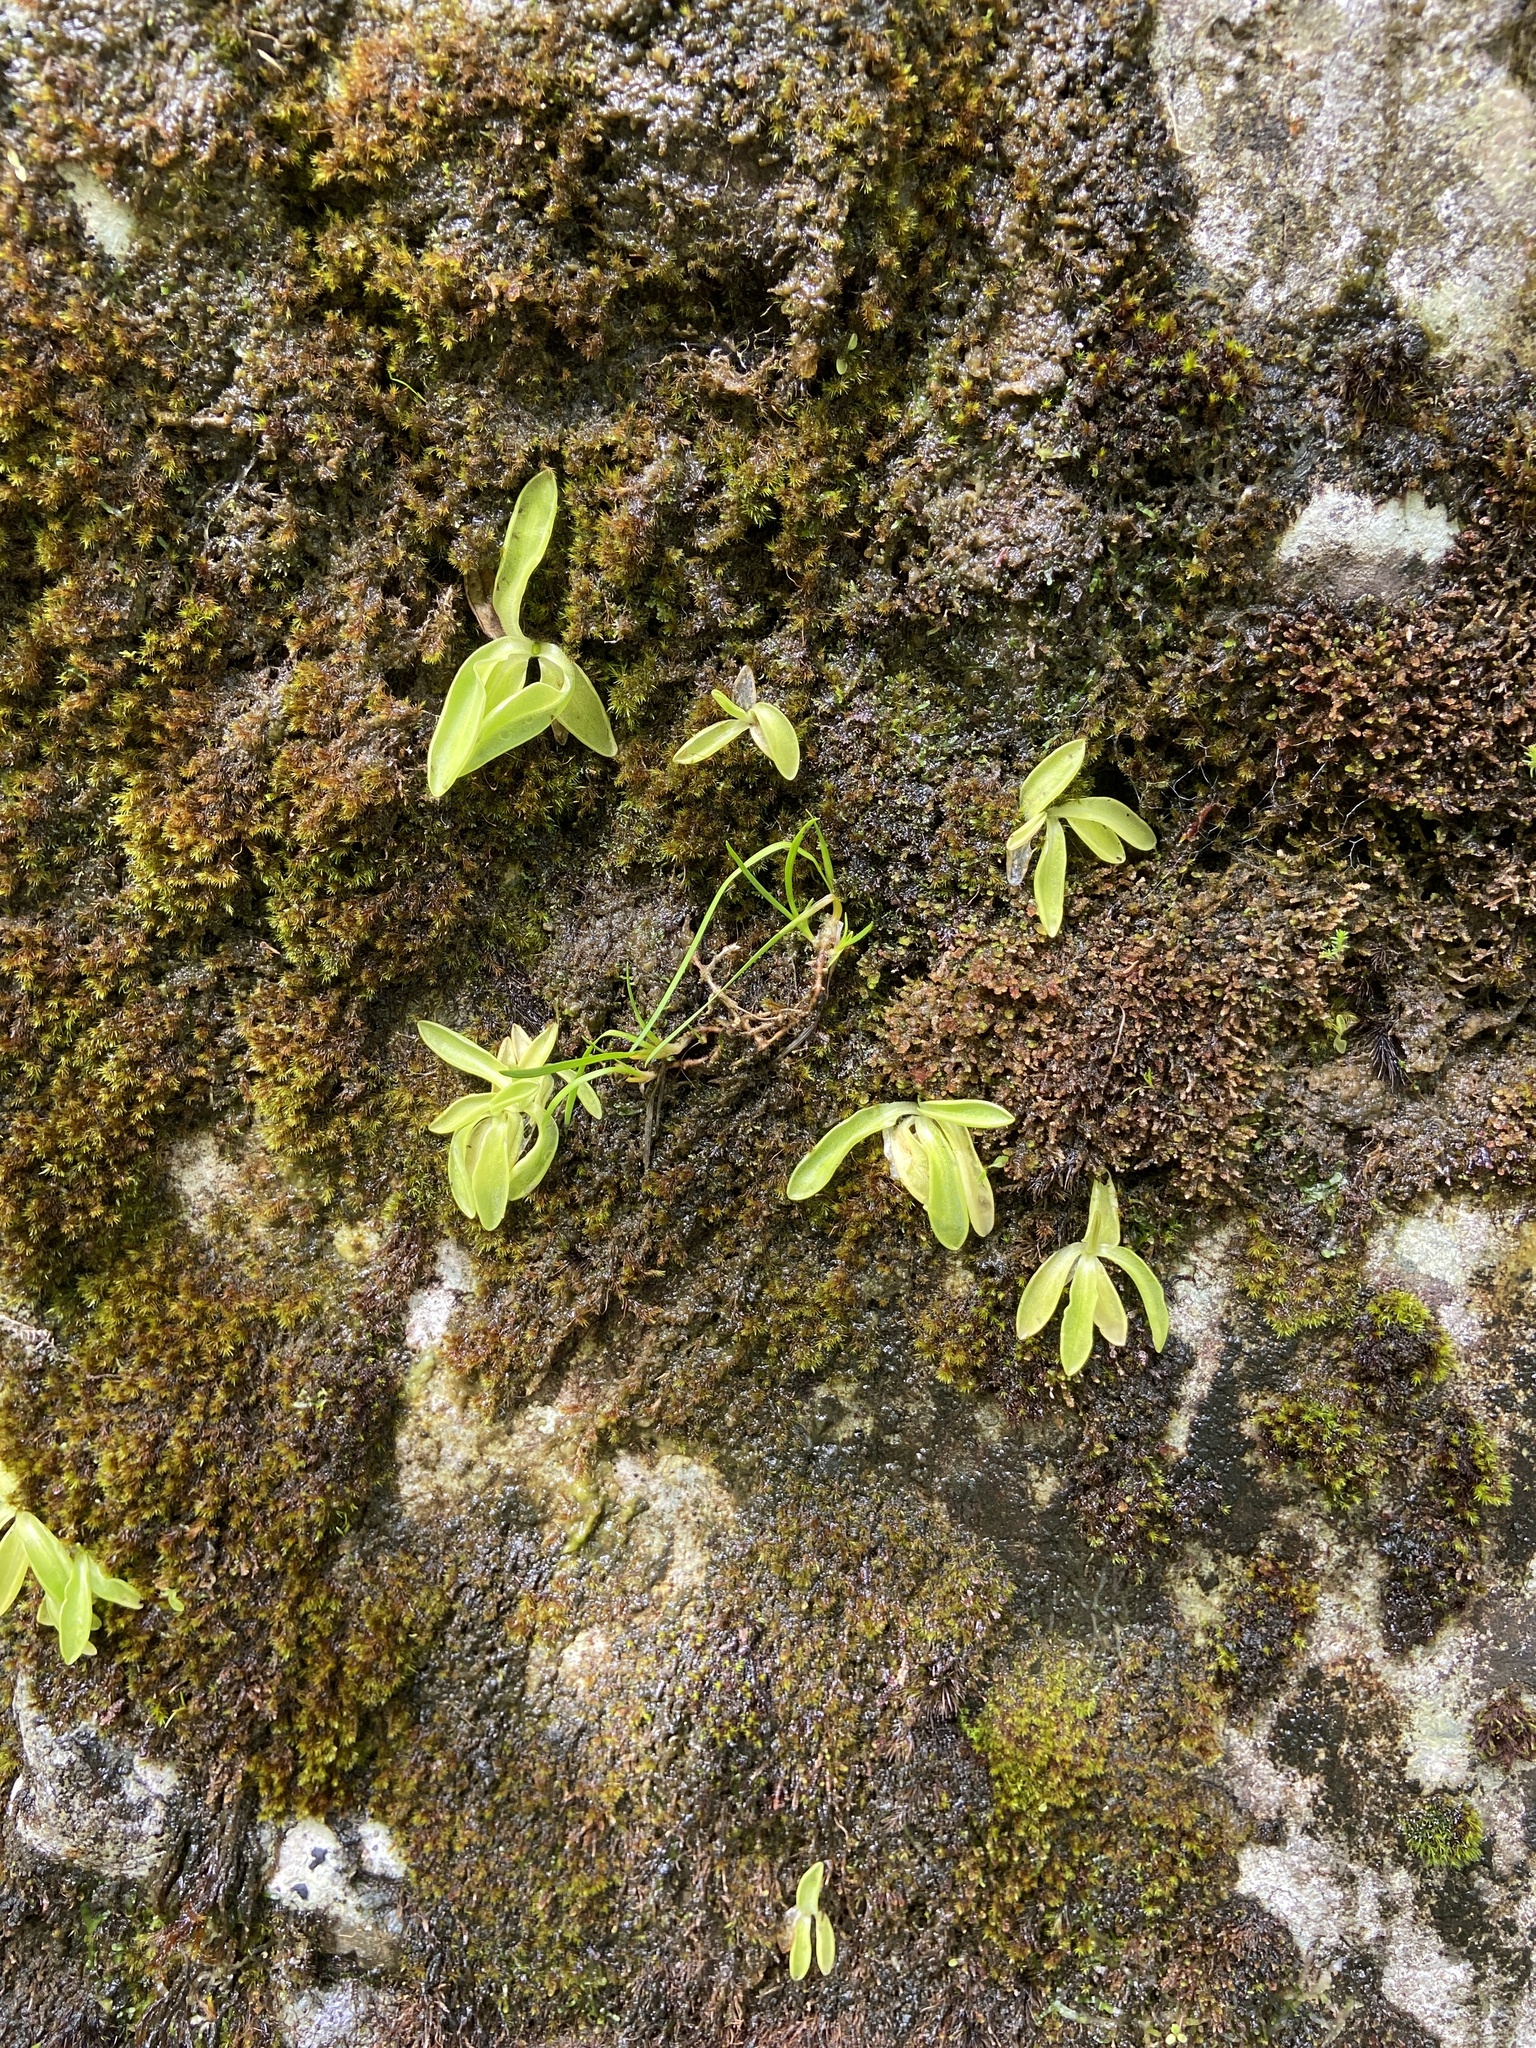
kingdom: Plantae
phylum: Tracheophyta
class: Magnoliopsida
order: Lamiales
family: Lentibulariaceae
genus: Pinguicula
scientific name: Pinguicula vulgaris
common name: Common butterwort
